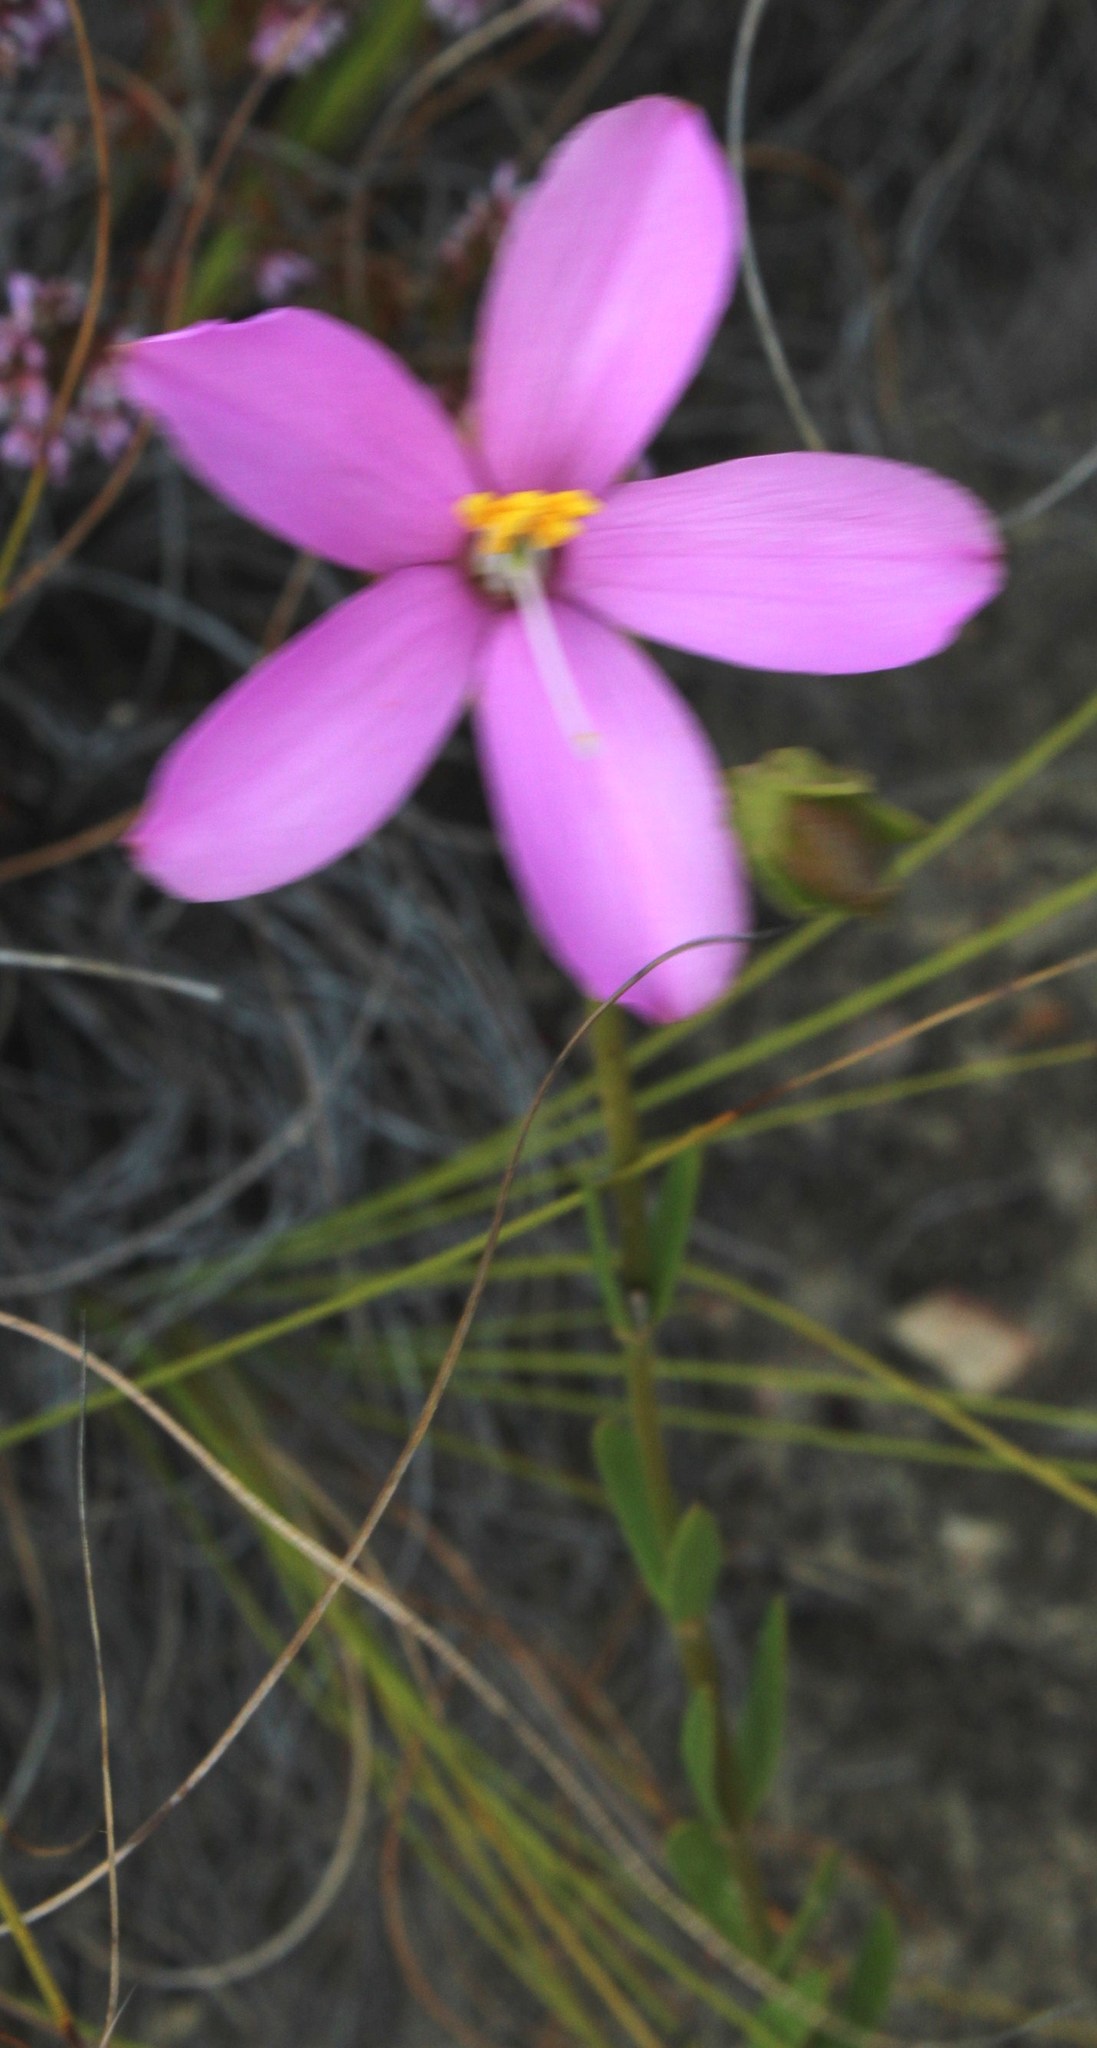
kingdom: Plantae
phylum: Tracheophyta
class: Magnoliopsida
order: Gentianales
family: Gentianaceae
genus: Chironia
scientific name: Chironia tetragona
